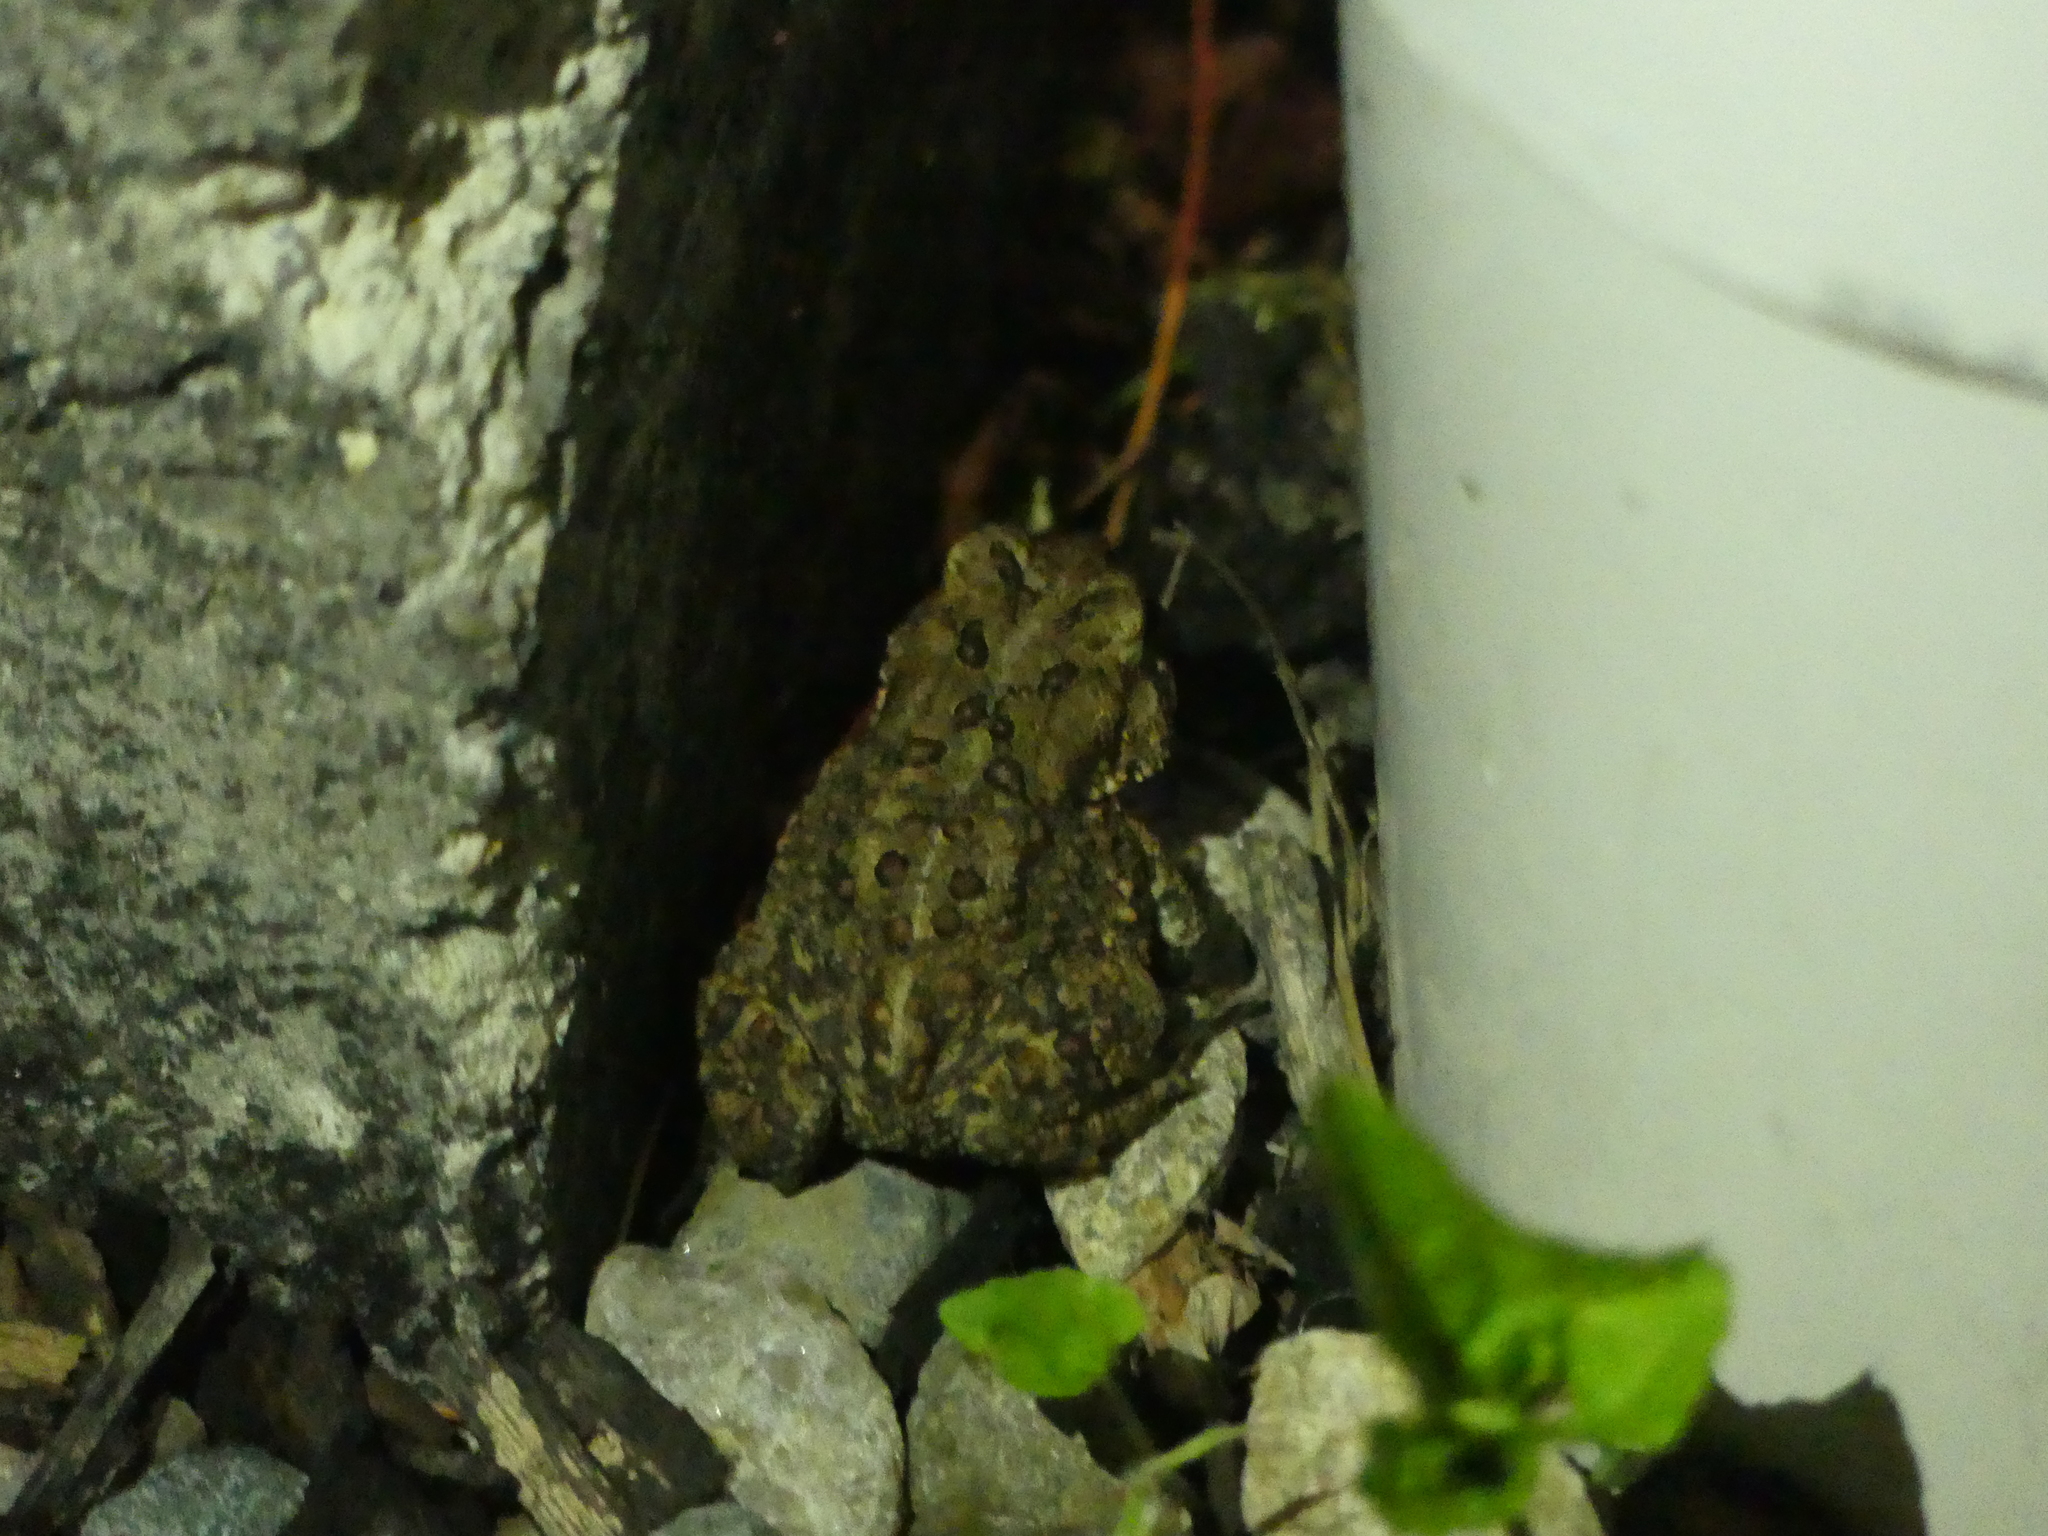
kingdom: Animalia
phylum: Chordata
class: Amphibia
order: Anura
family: Bufonidae
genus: Anaxyrus
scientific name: Anaxyrus americanus
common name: American toad
